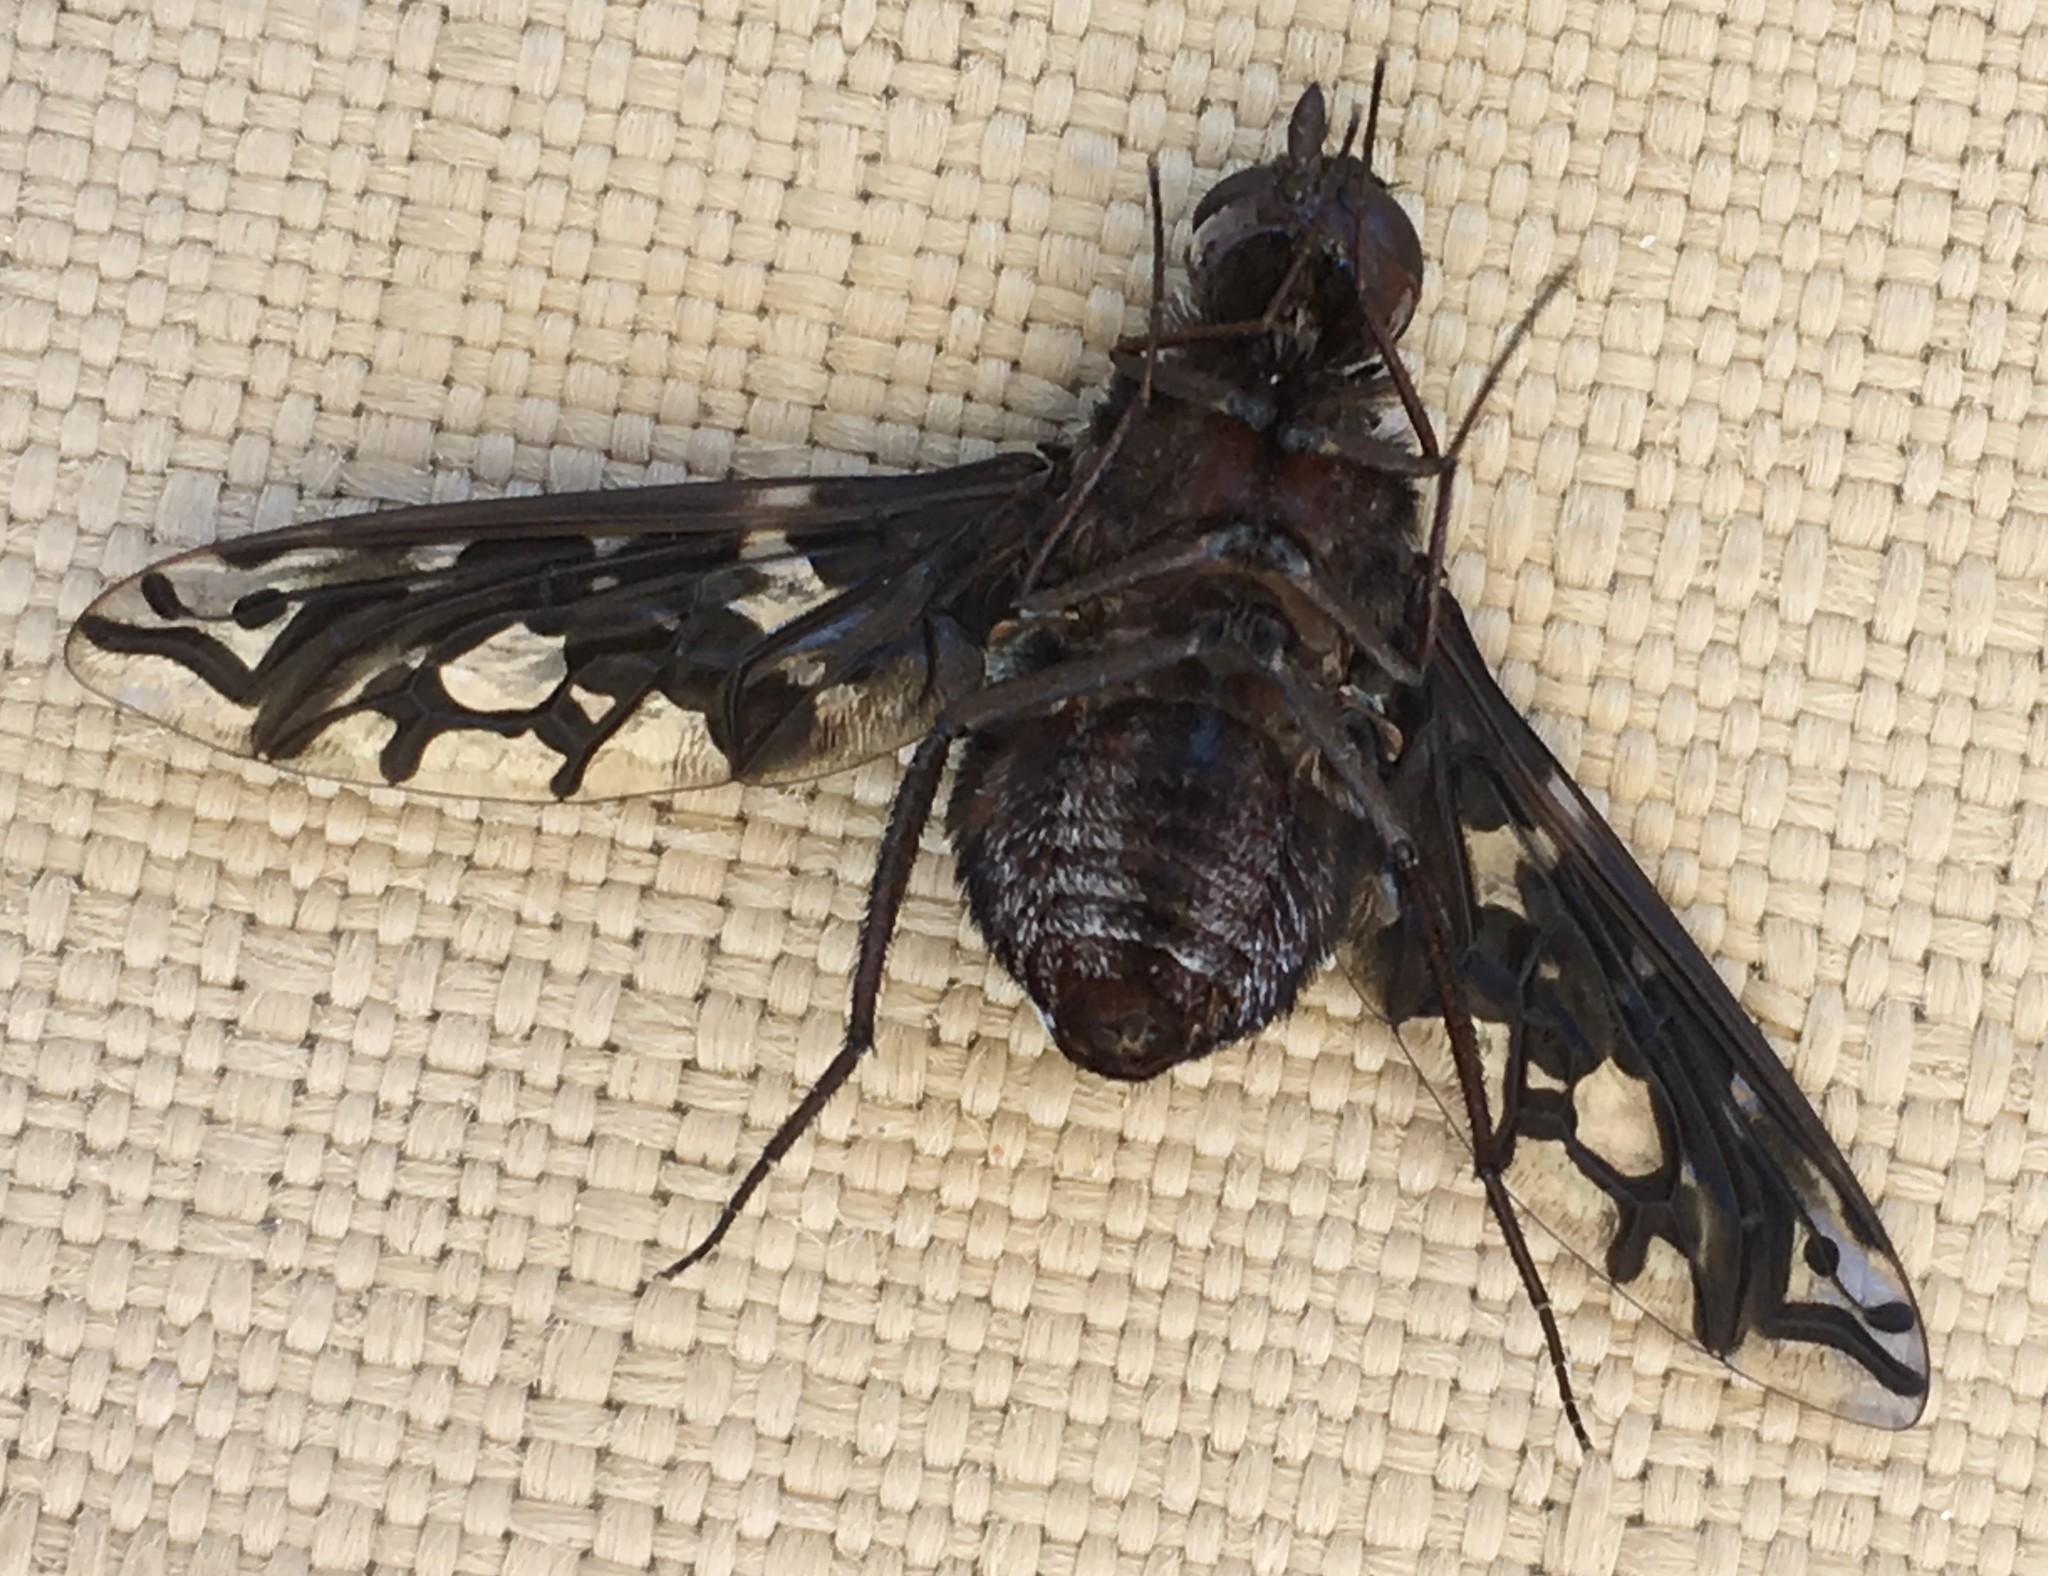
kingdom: Animalia
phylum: Arthropoda
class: Insecta
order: Diptera
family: Bombyliidae
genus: Xenox
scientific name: Xenox tigrinus
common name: Tiger bee fly
